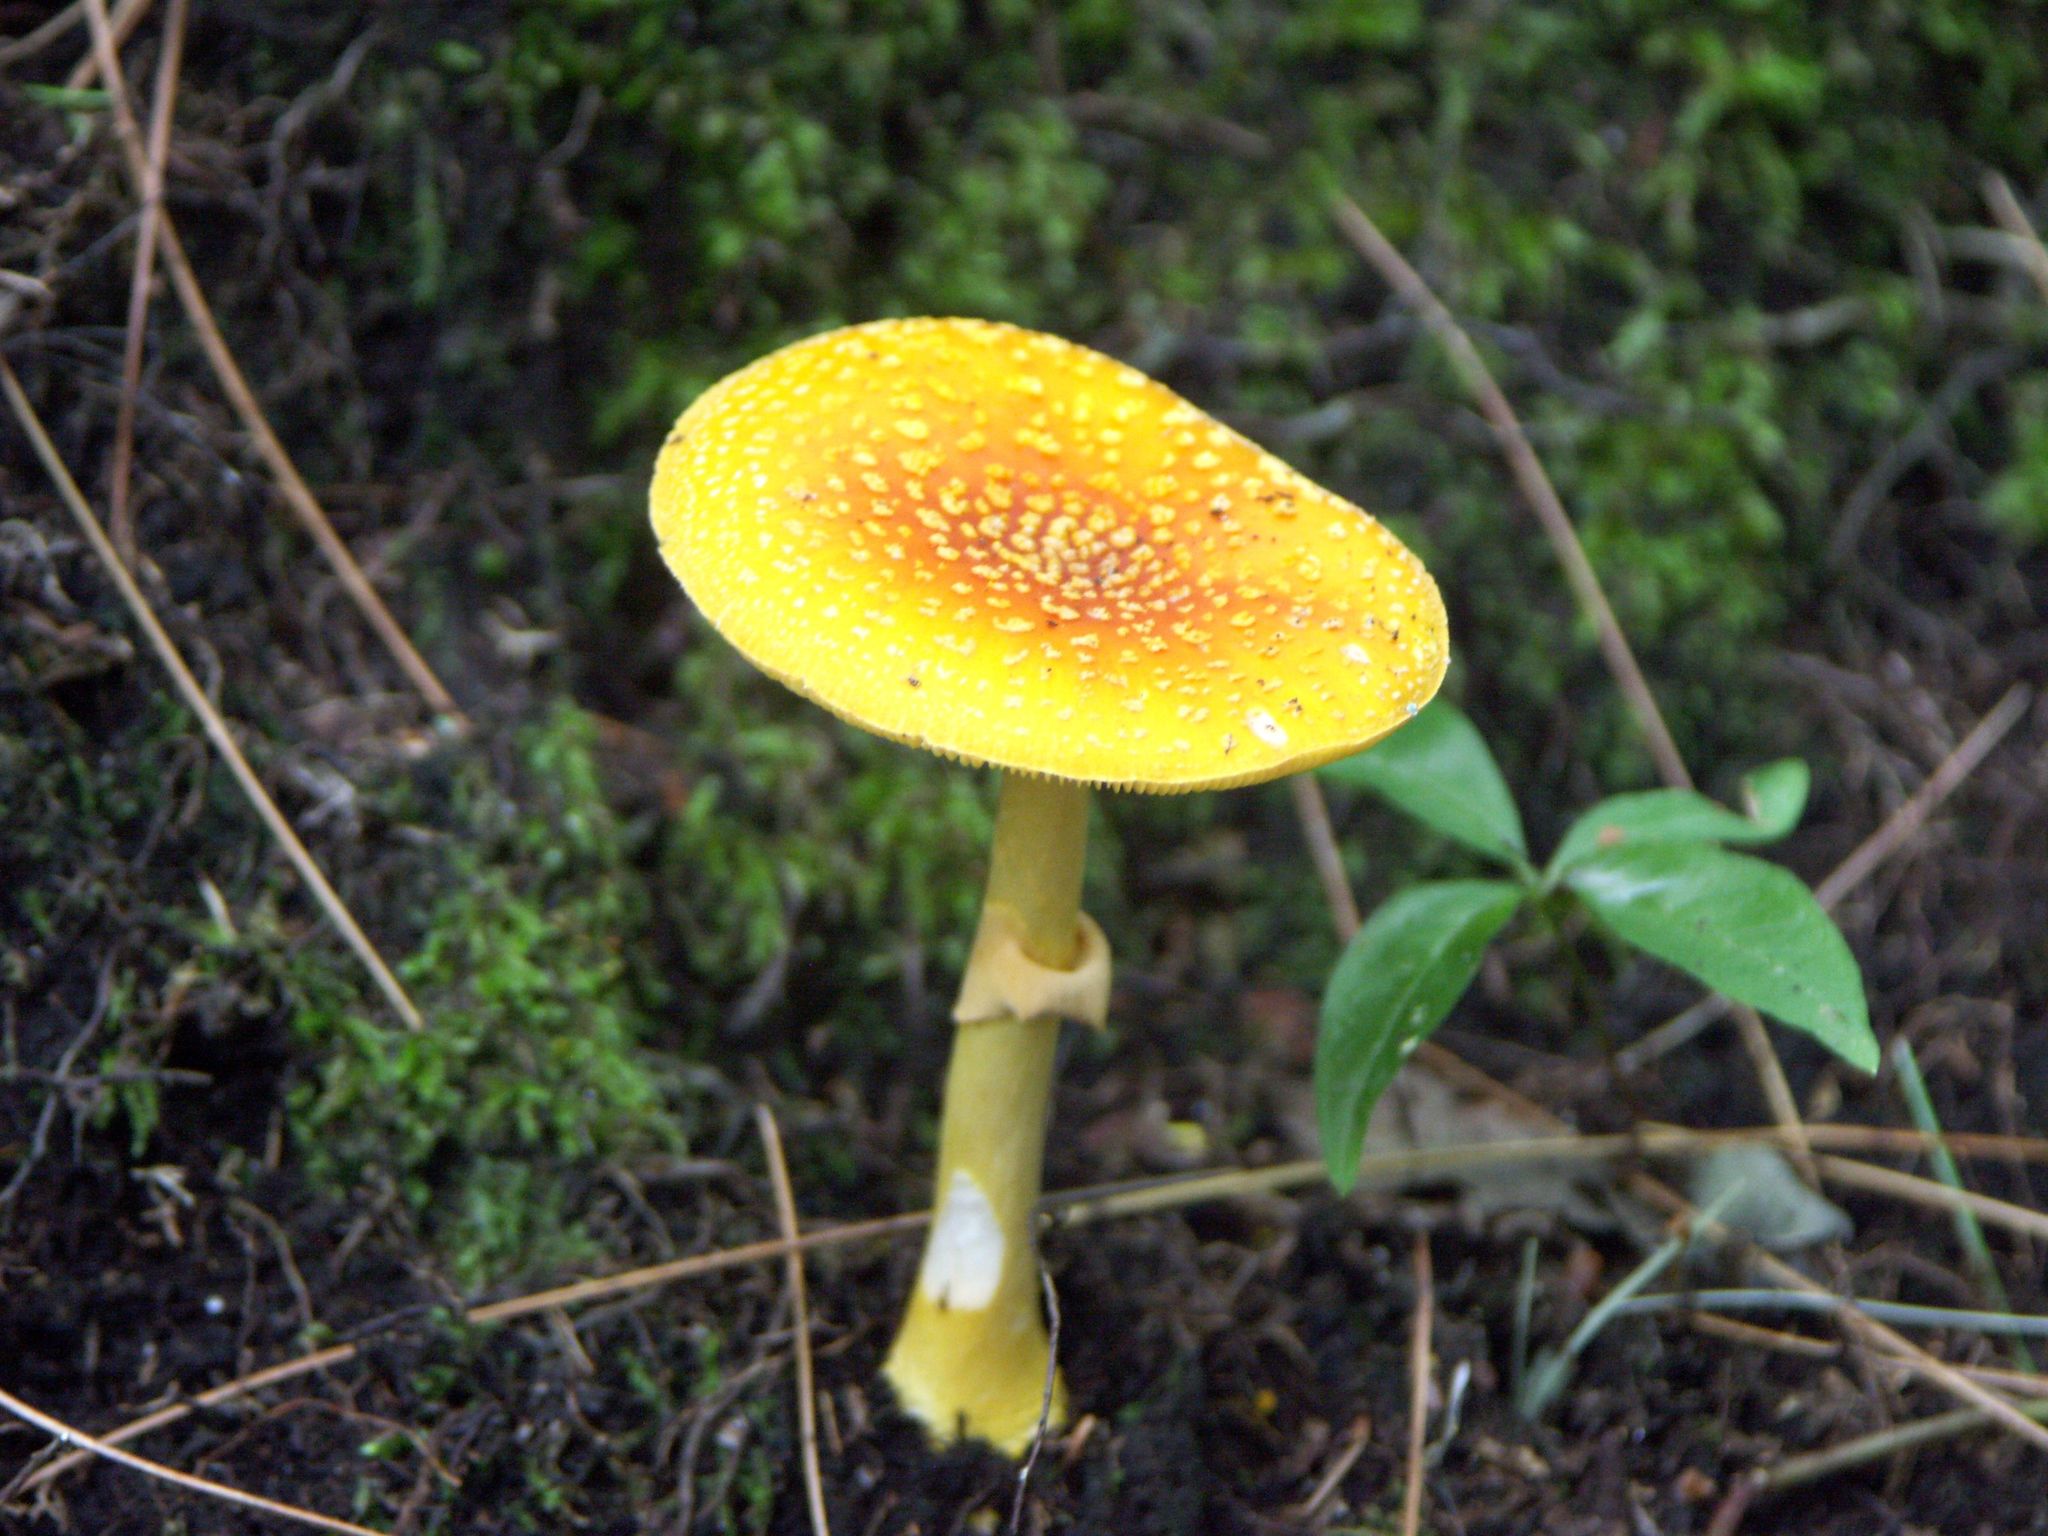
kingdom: Fungi
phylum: Basidiomycota
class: Agaricomycetes
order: Agaricales
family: Amanitaceae
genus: Amanita
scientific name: Amanita flavoconia
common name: Yellow patches
